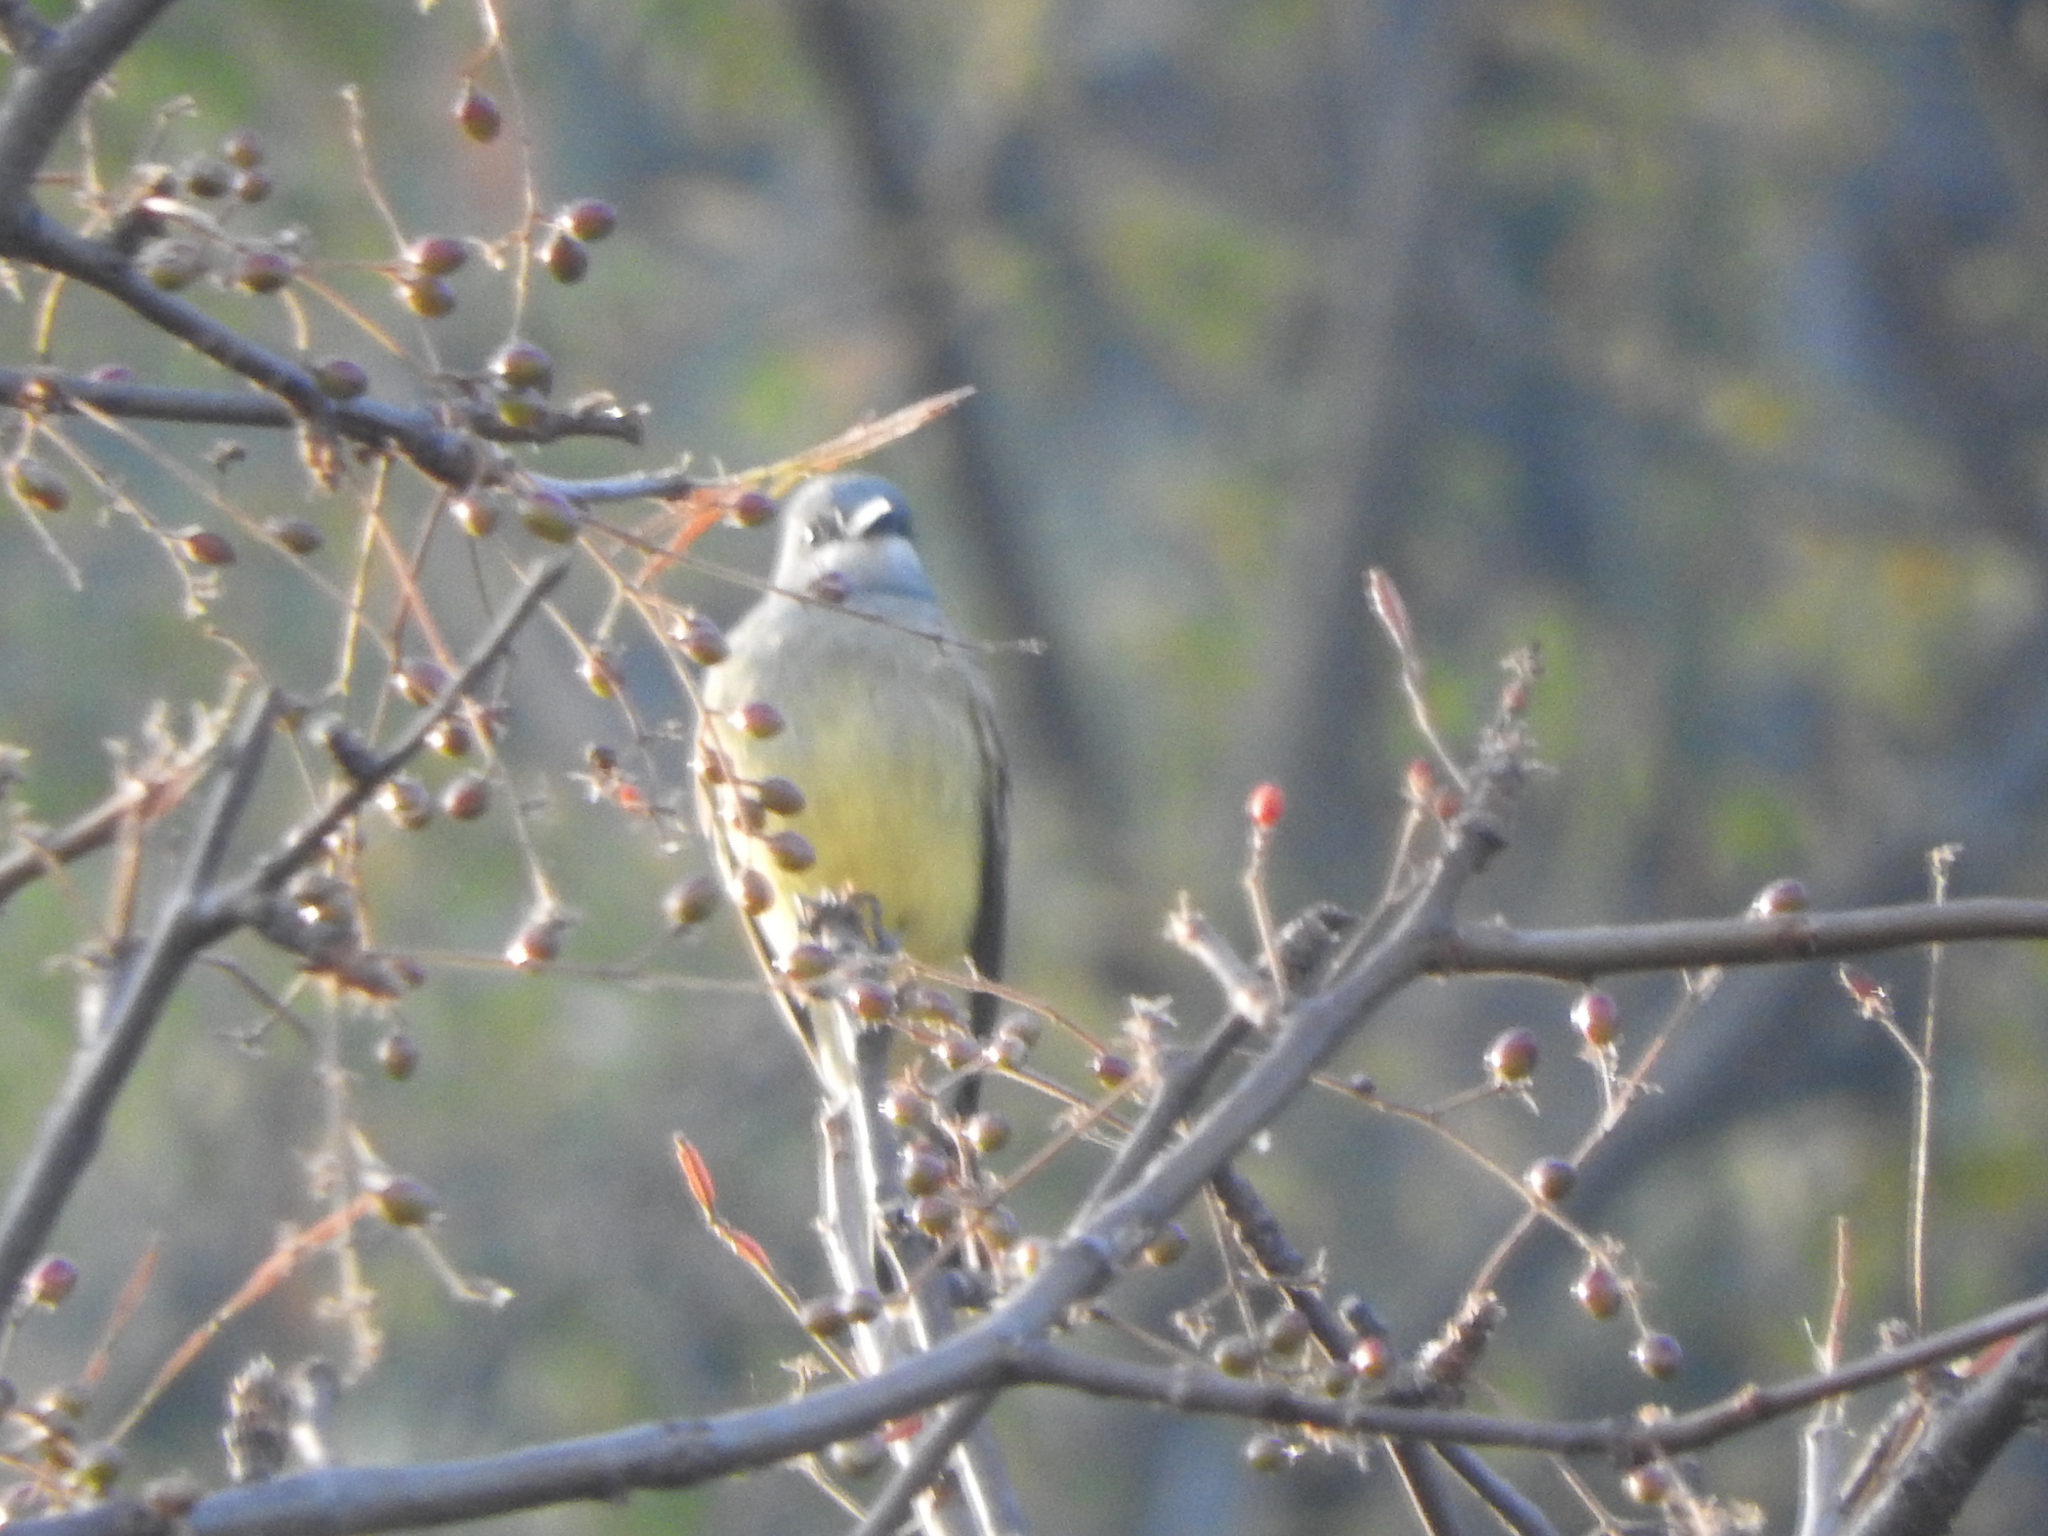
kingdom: Animalia
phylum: Chordata
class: Aves
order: Passeriformes
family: Tyrannidae
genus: Tyrannus
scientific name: Tyrannus vociferans
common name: Cassin's kingbird
